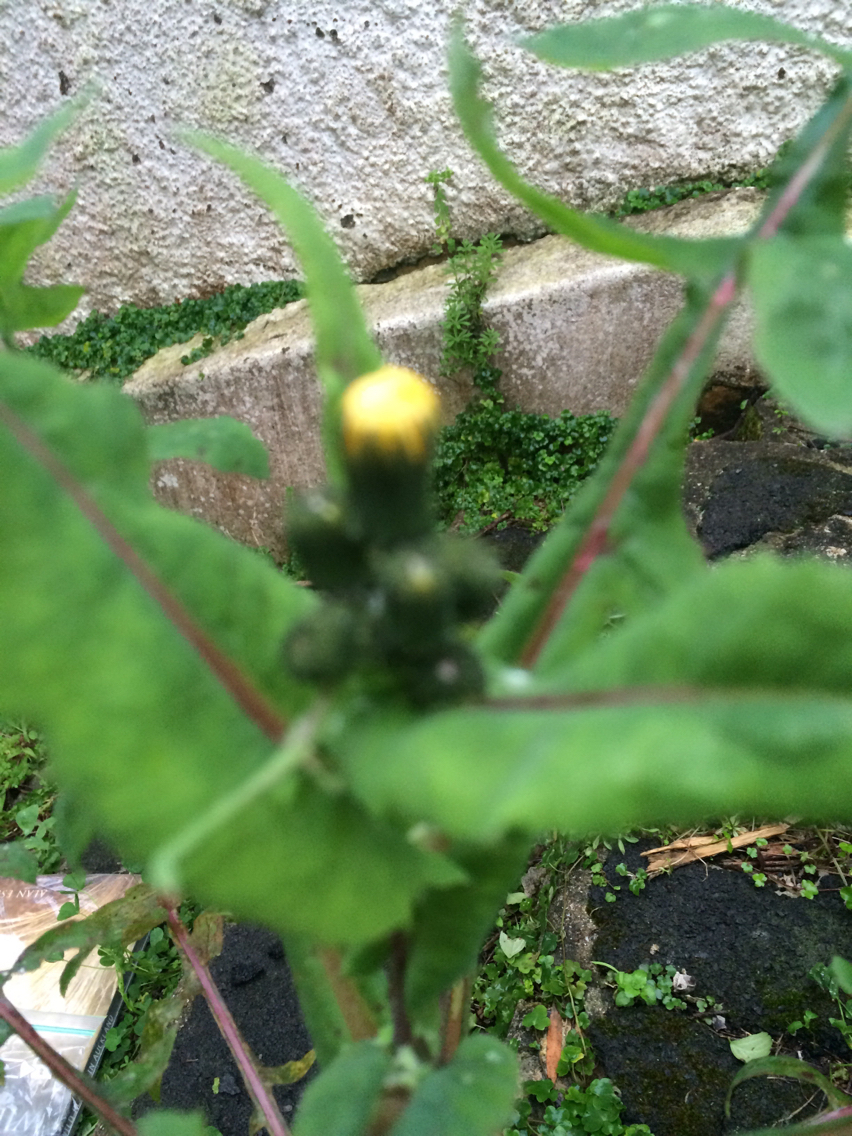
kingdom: Plantae
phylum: Tracheophyta
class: Magnoliopsida
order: Asterales
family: Asteraceae
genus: Sonchus
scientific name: Sonchus oleraceus
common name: Common sowthistle
